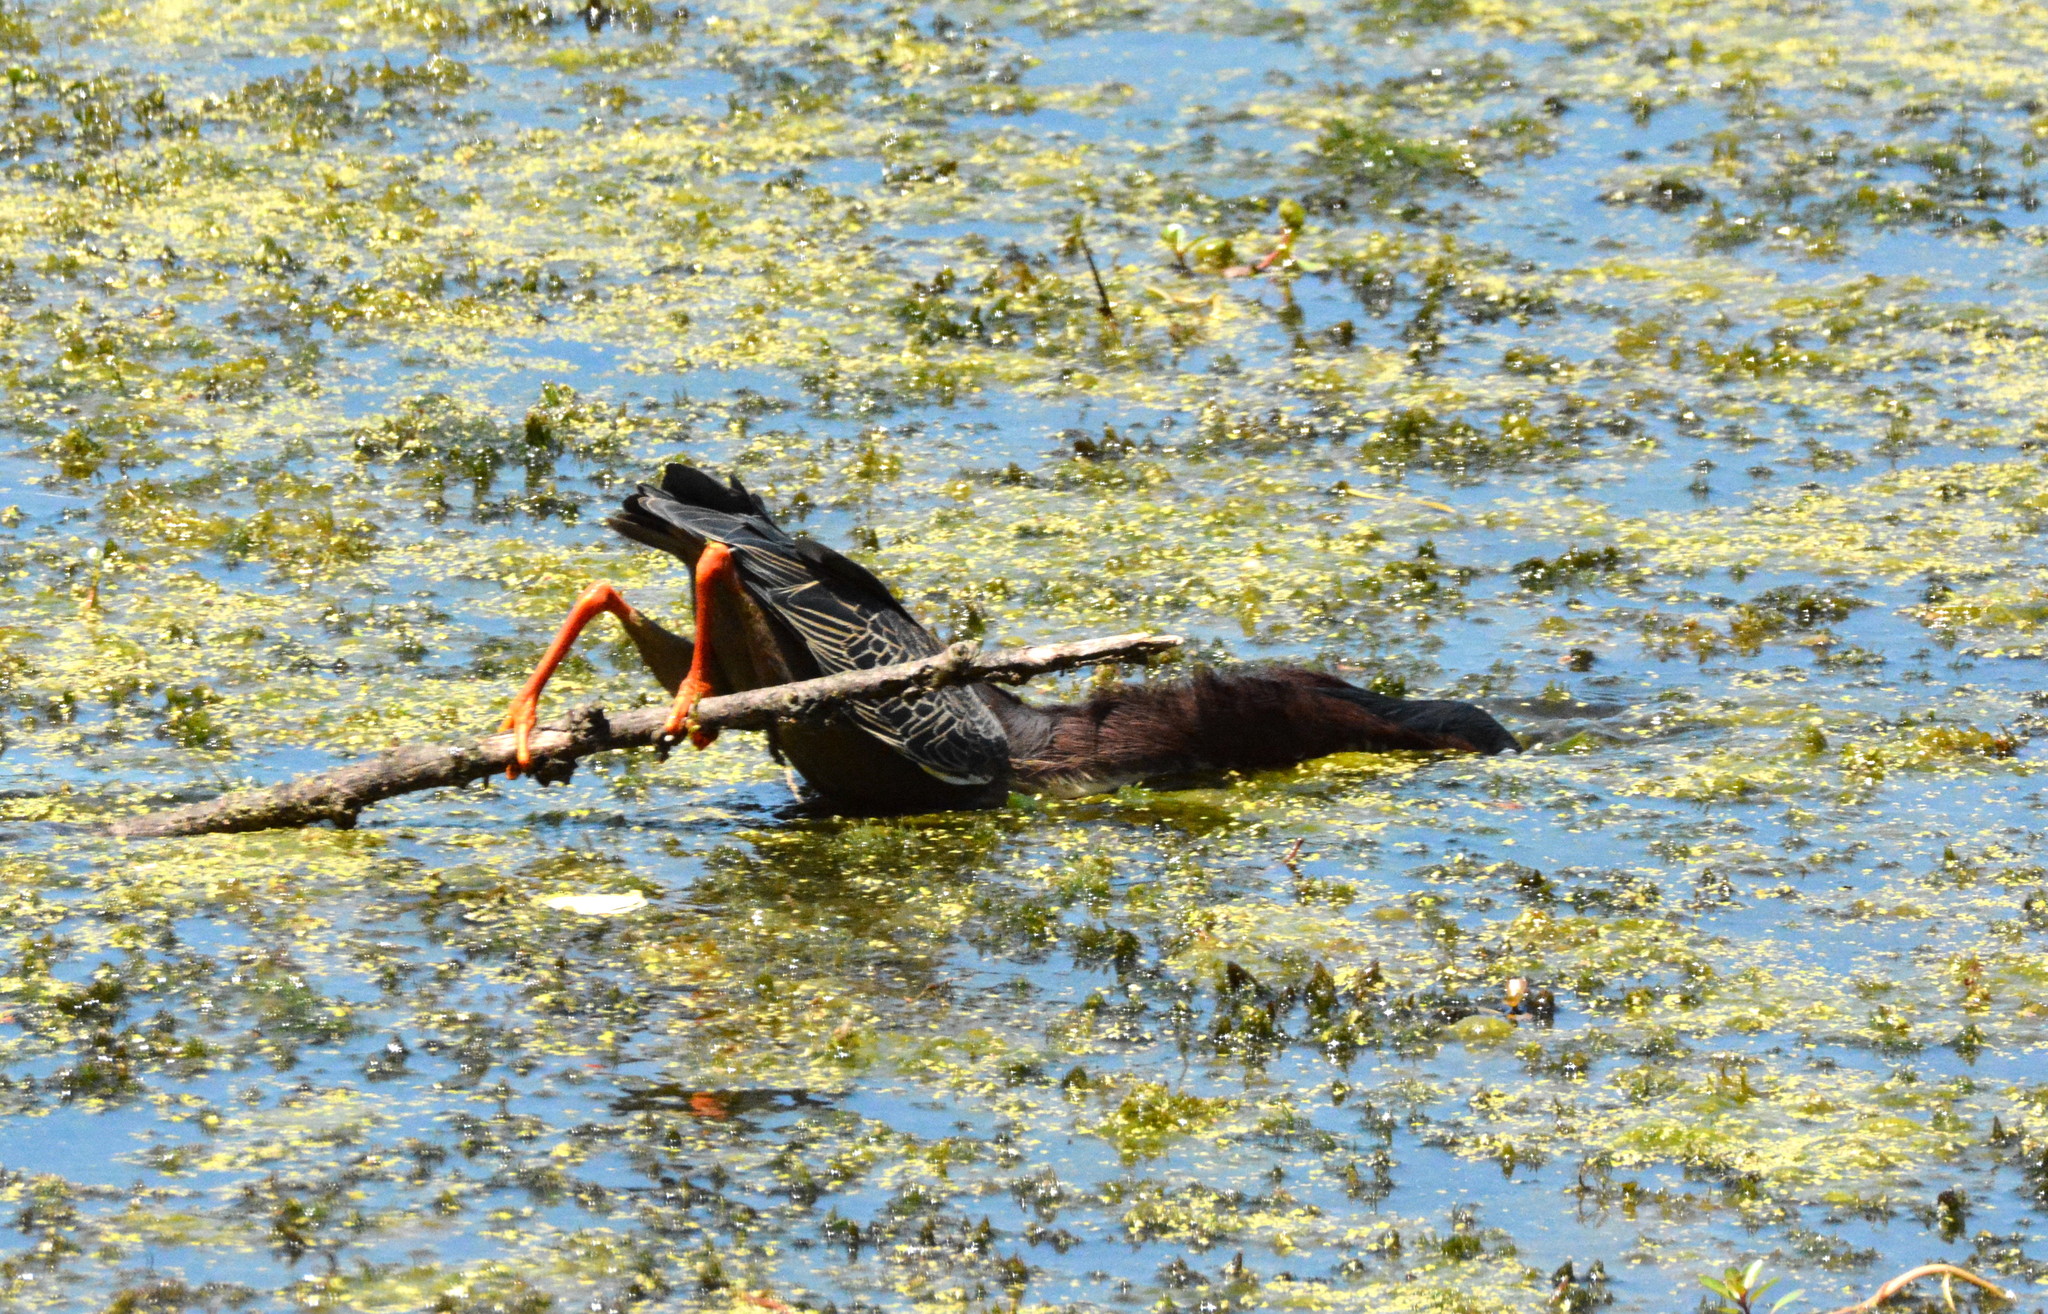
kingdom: Animalia
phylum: Chordata
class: Aves
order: Pelecaniformes
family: Ardeidae
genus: Butorides
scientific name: Butorides virescens
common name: Green heron
